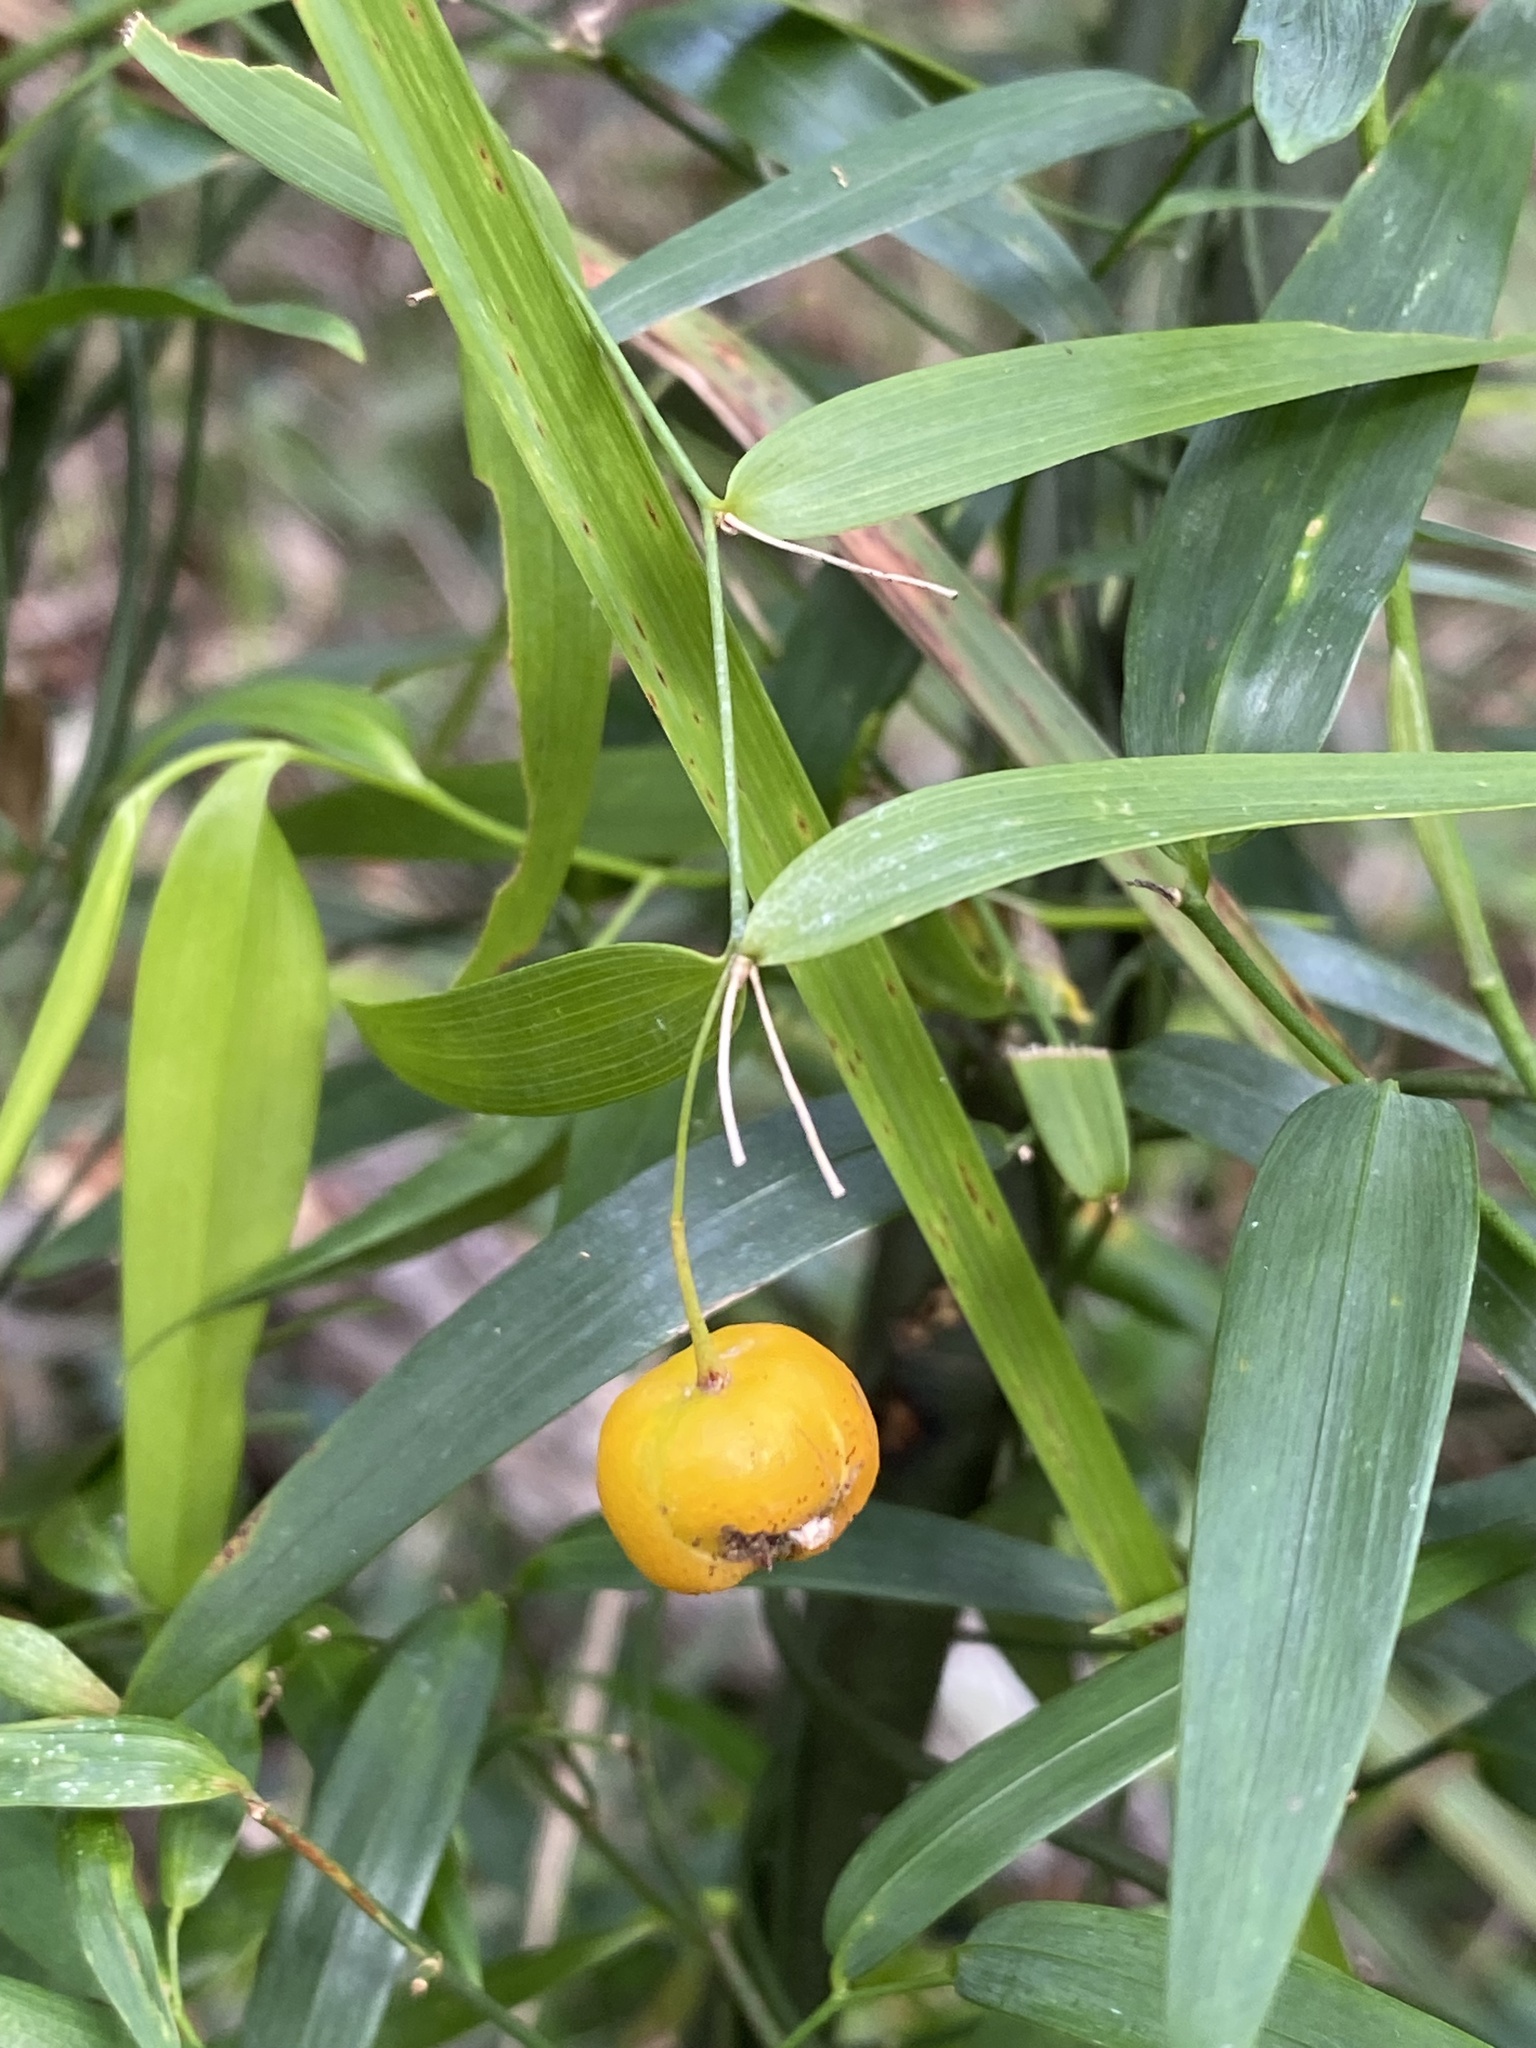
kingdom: Plantae
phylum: Tracheophyta
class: Liliopsida
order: Asparagales
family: Asparagaceae
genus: Eustrephus
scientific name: Eustrephus latifolius
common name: Orangevine
